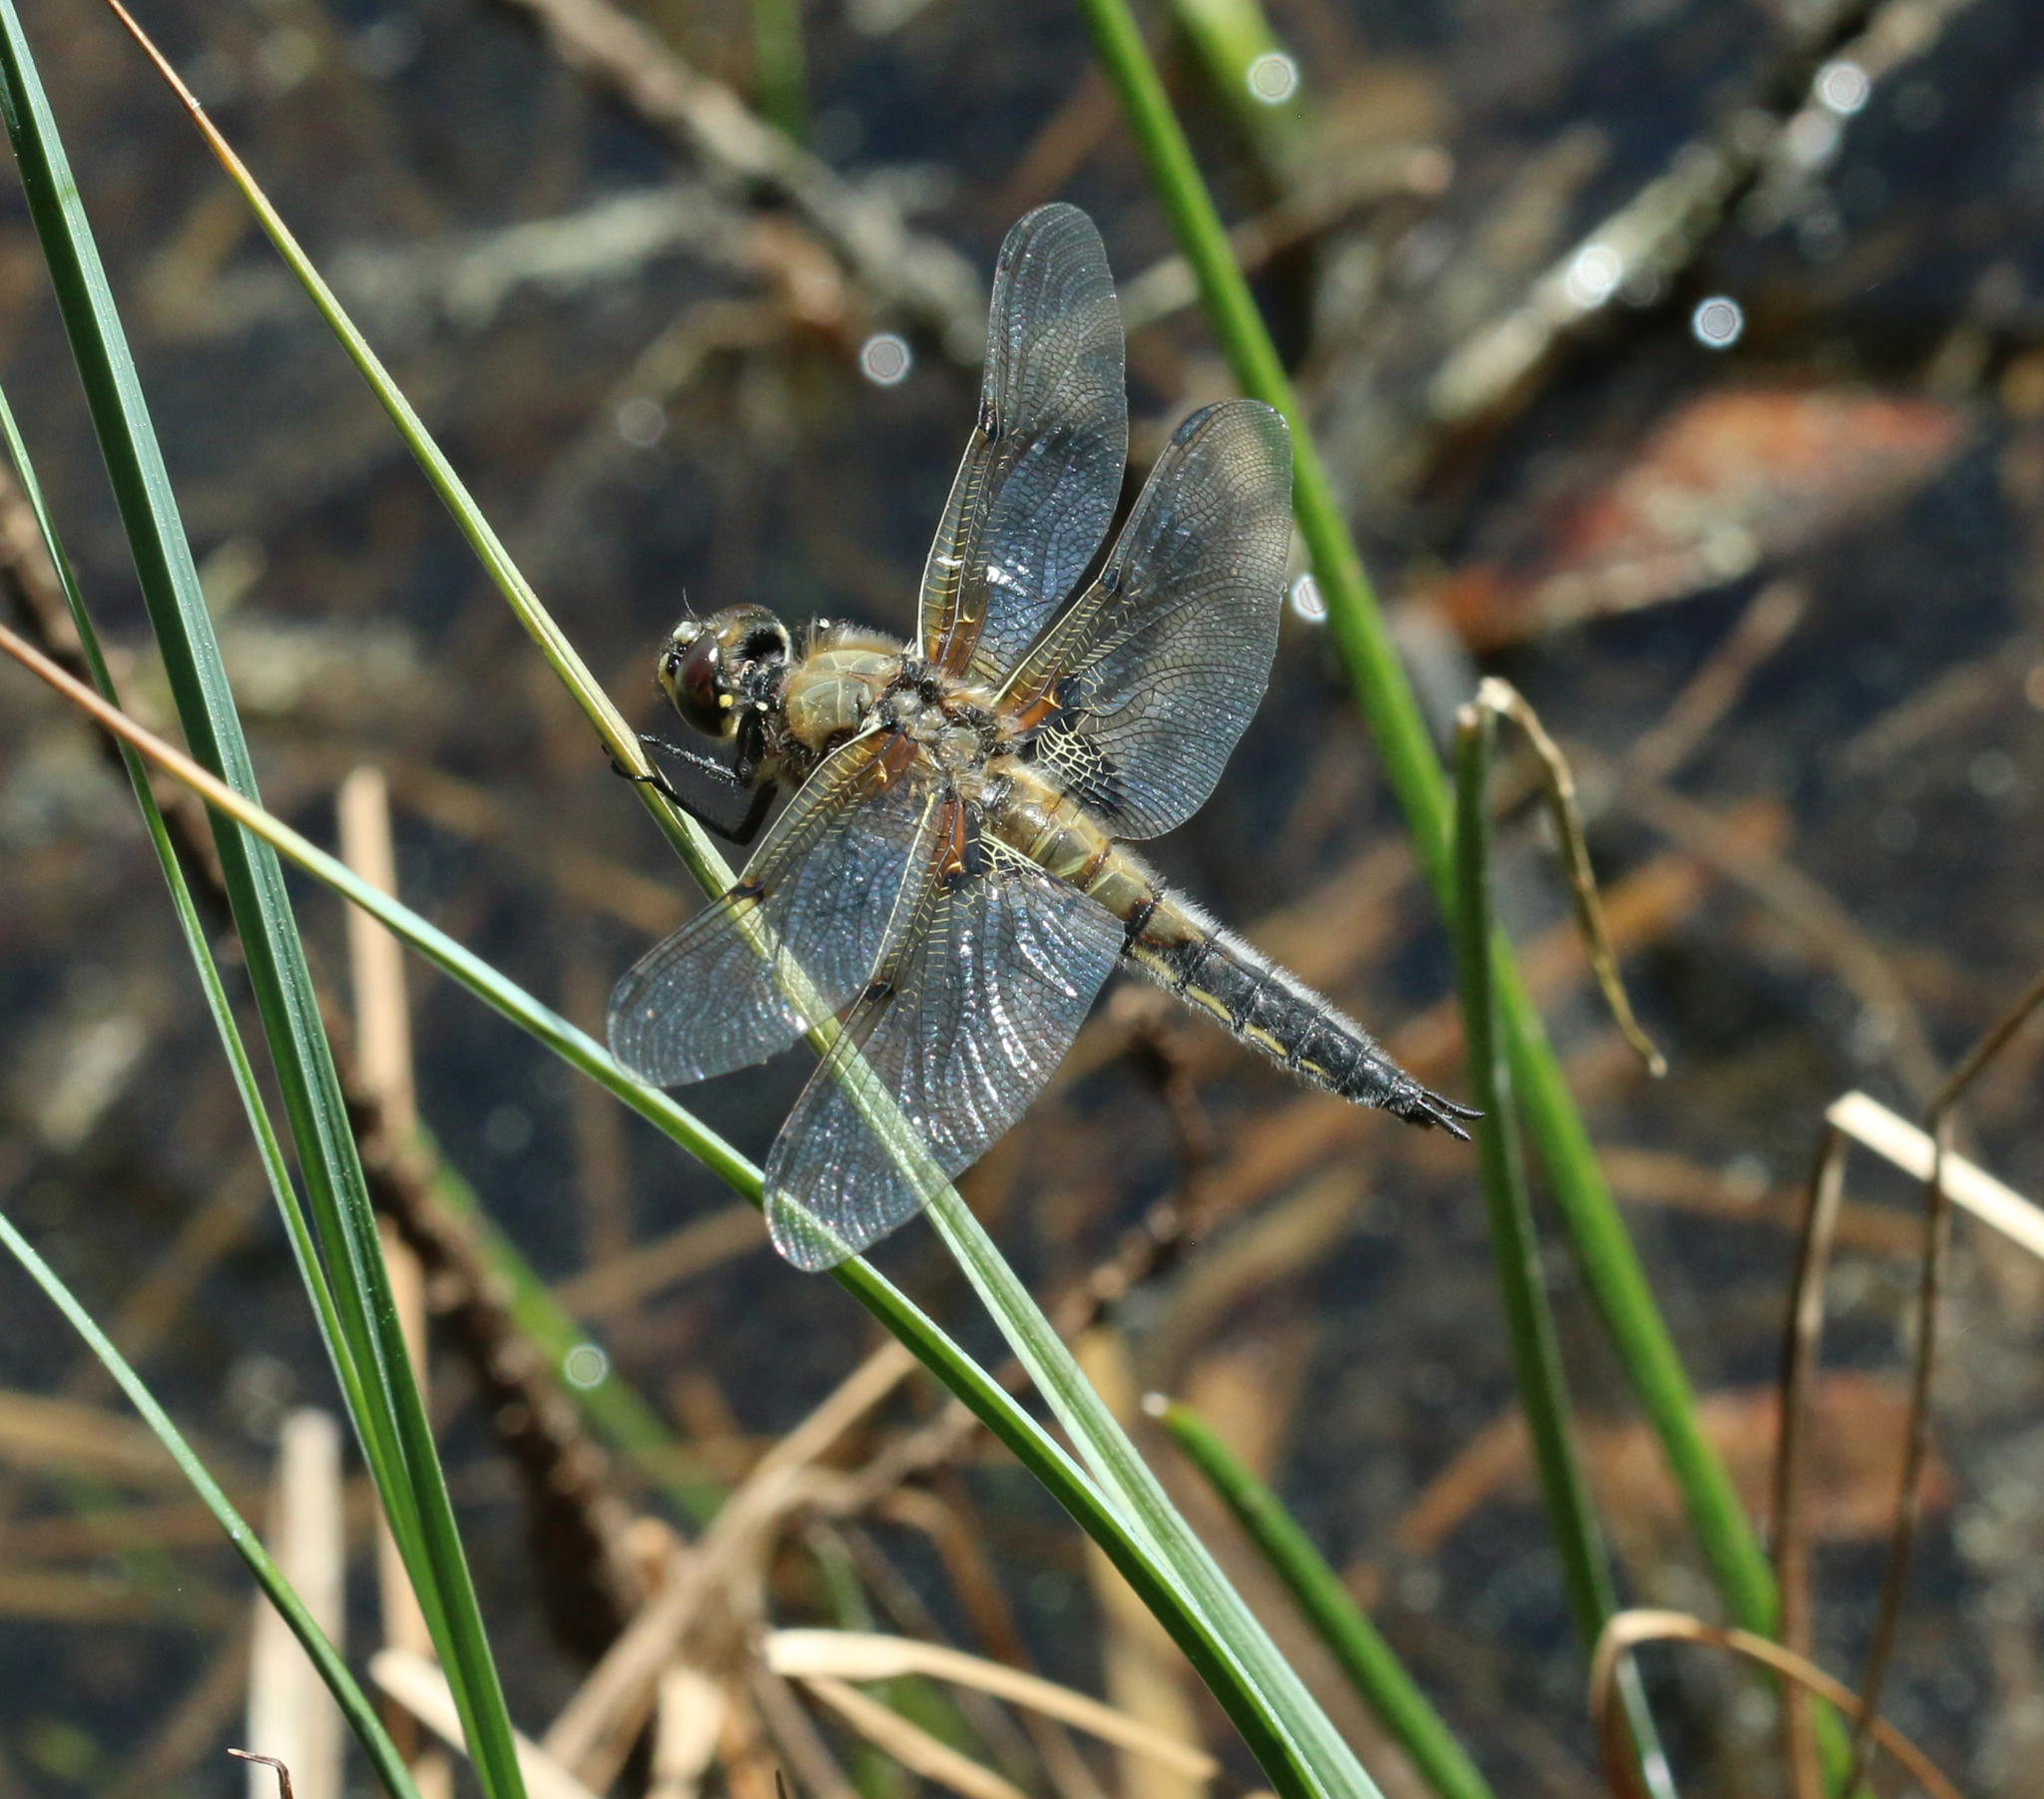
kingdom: Animalia
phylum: Arthropoda
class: Insecta
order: Odonata
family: Libellulidae
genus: Libellula
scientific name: Libellula quadrimaculata
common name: Four-spotted chaser
